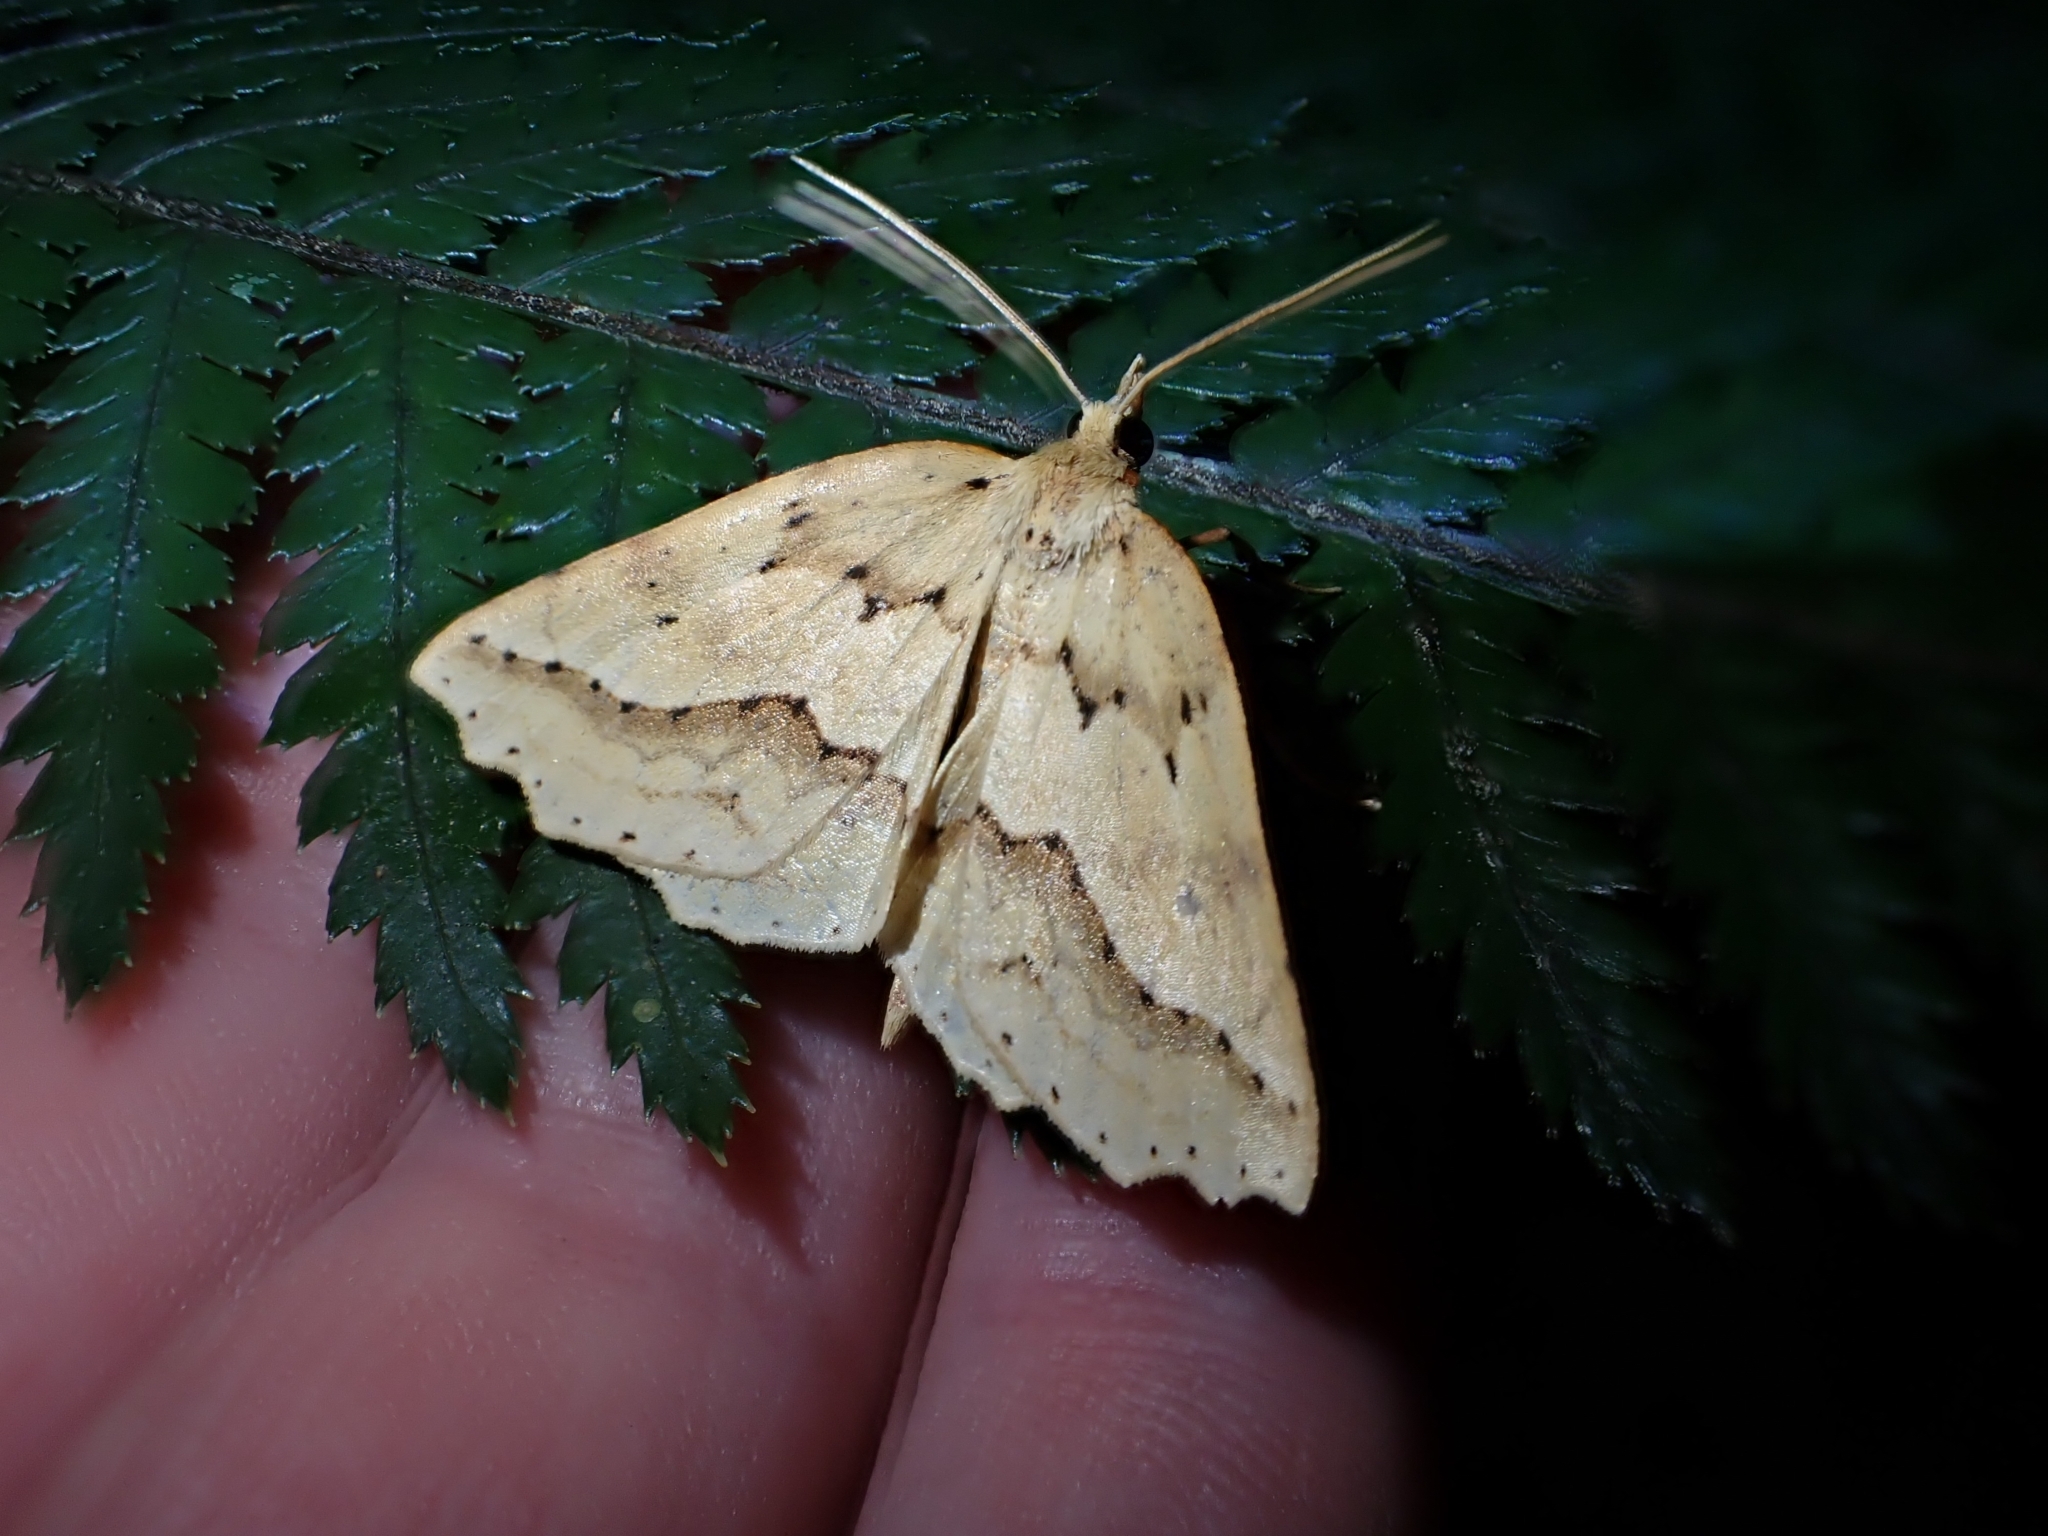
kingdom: Animalia
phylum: Arthropoda
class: Insecta
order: Lepidoptera
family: Geometridae
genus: Ischalis
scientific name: Ischalis variabilis
